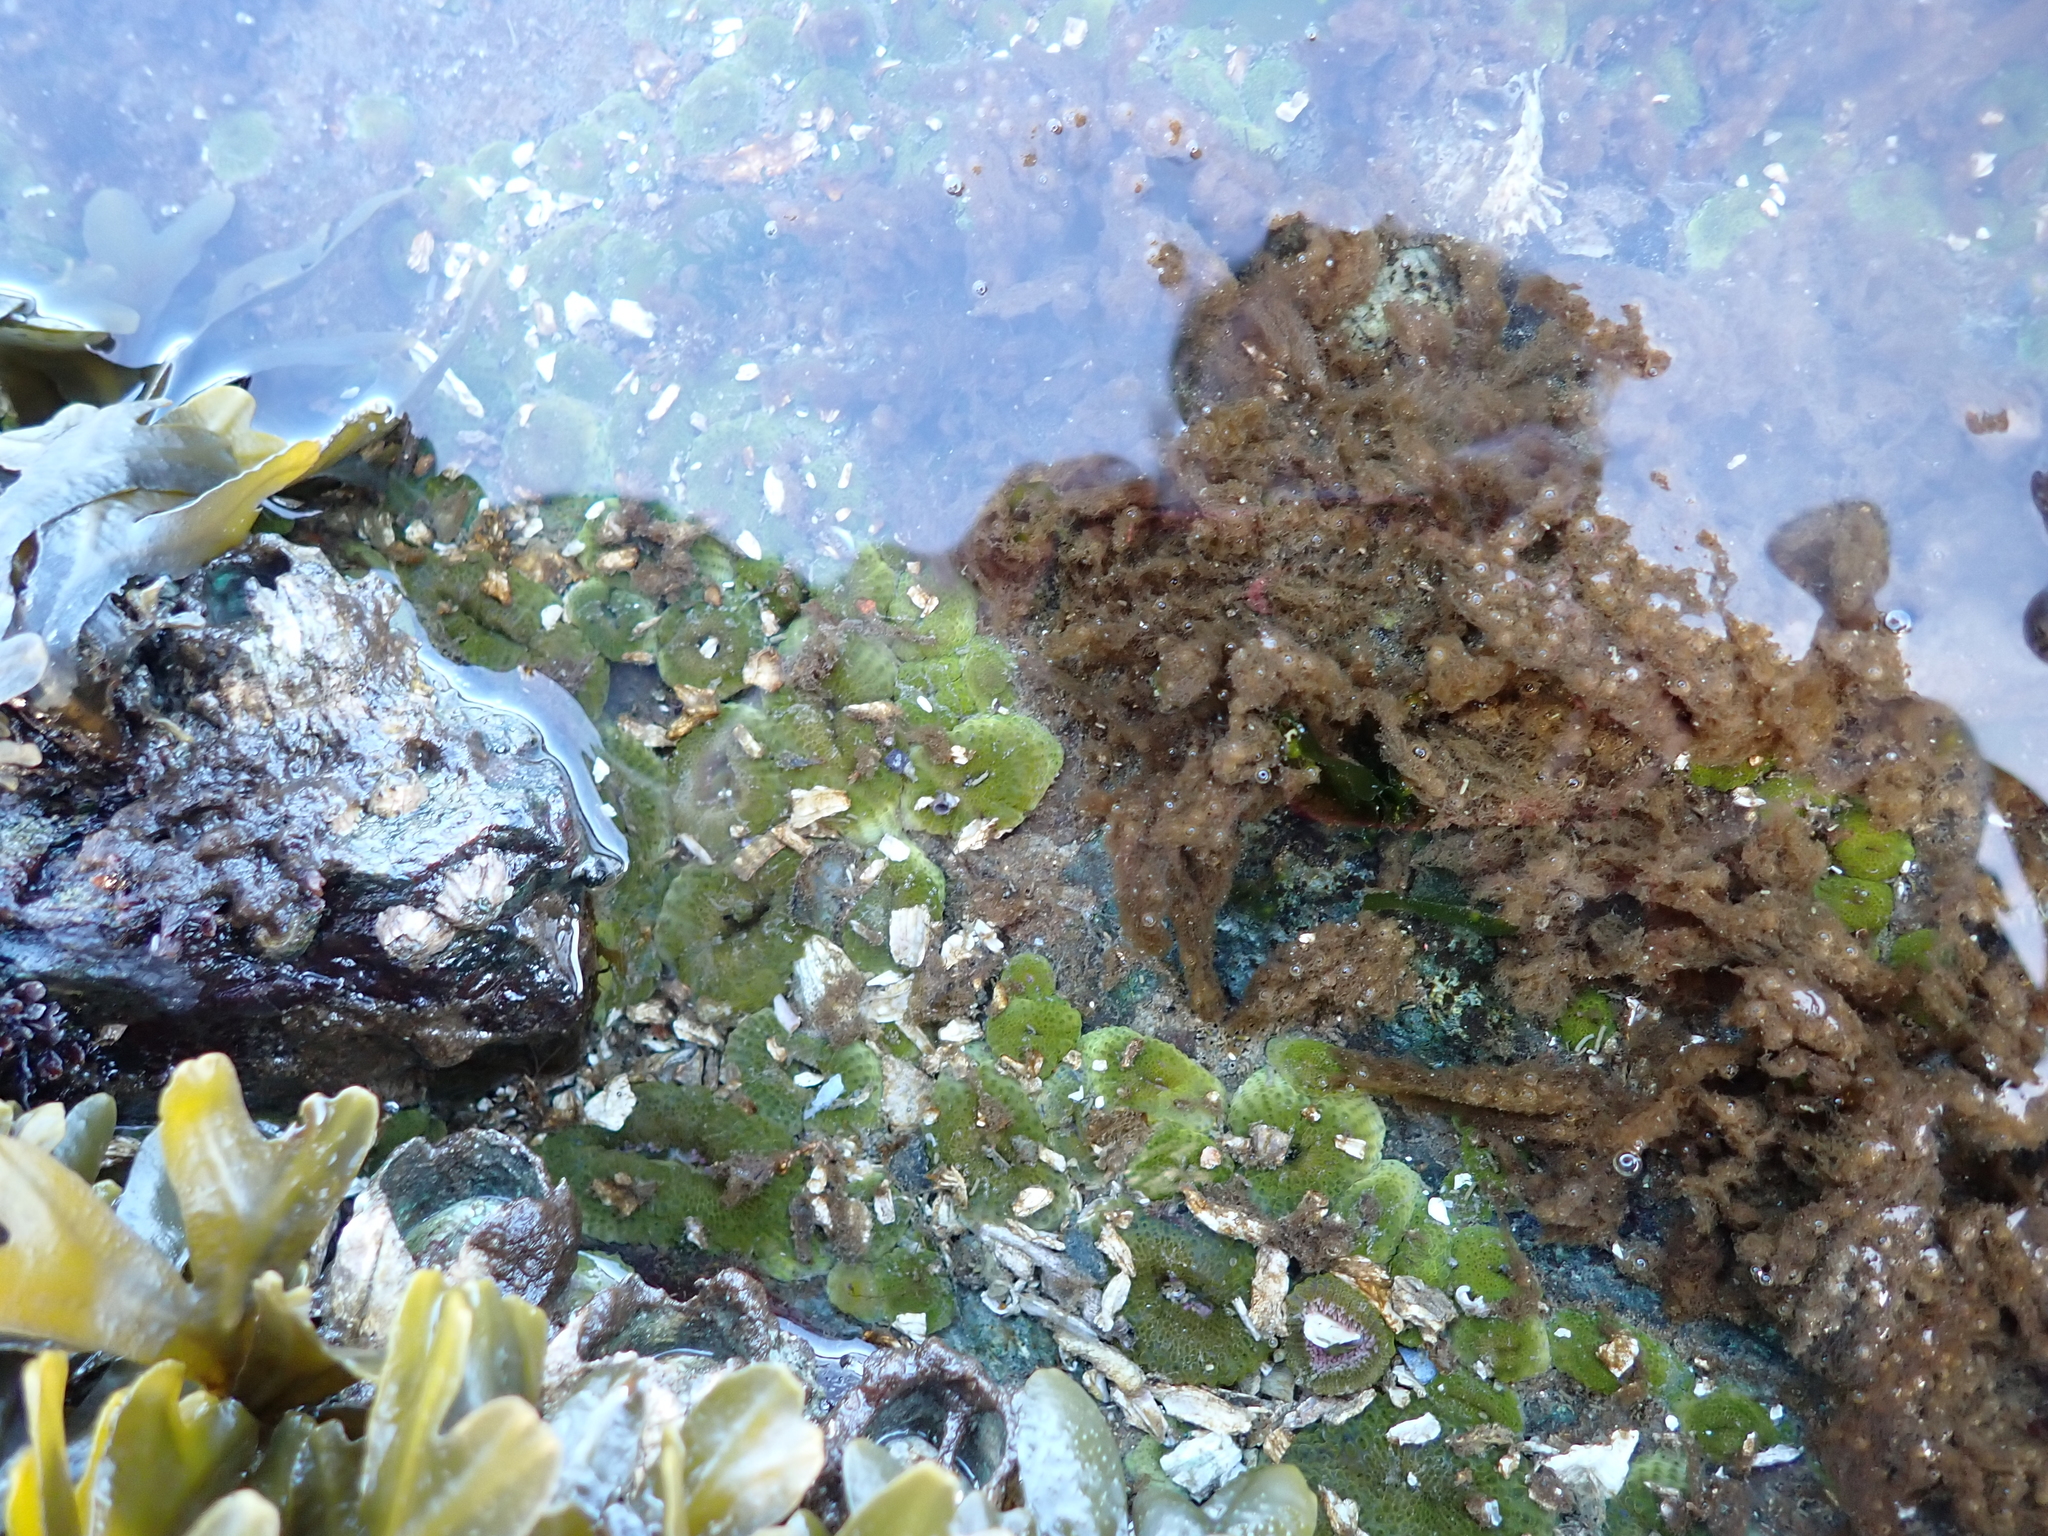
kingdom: Animalia
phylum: Cnidaria
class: Anthozoa
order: Actiniaria
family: Actiniidae
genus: Anthopleura
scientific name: Anthopleura elegantissima
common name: Clonal anemone
